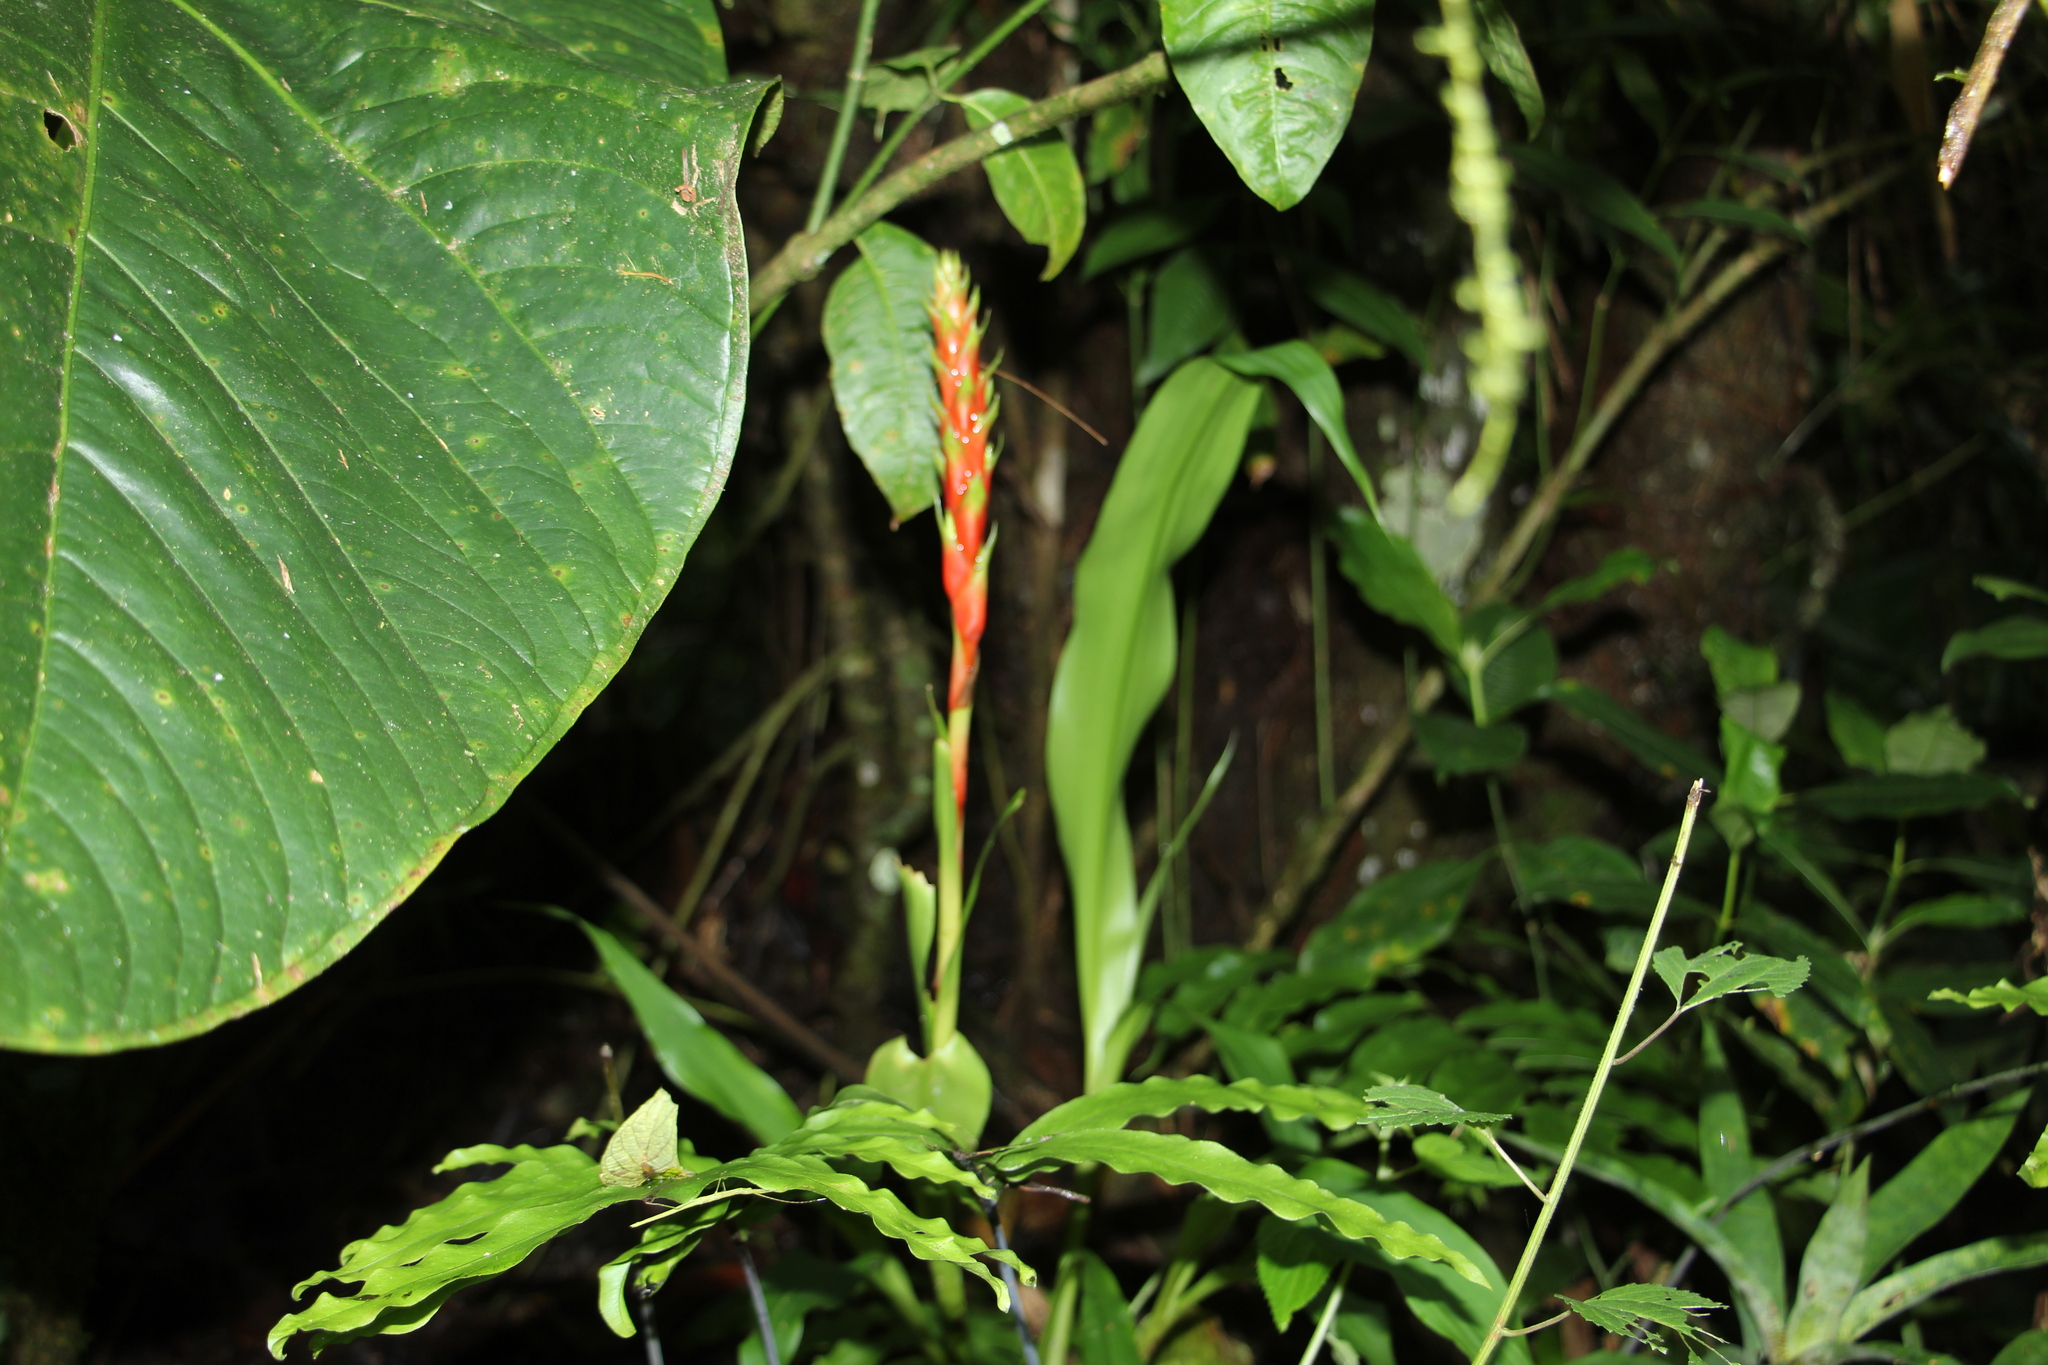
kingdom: Plantae
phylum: Tracheophyta
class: Liliopsida
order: Poales
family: Bromeliaceae
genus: Pitcairnia
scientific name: Pitcairnia maidifolia
